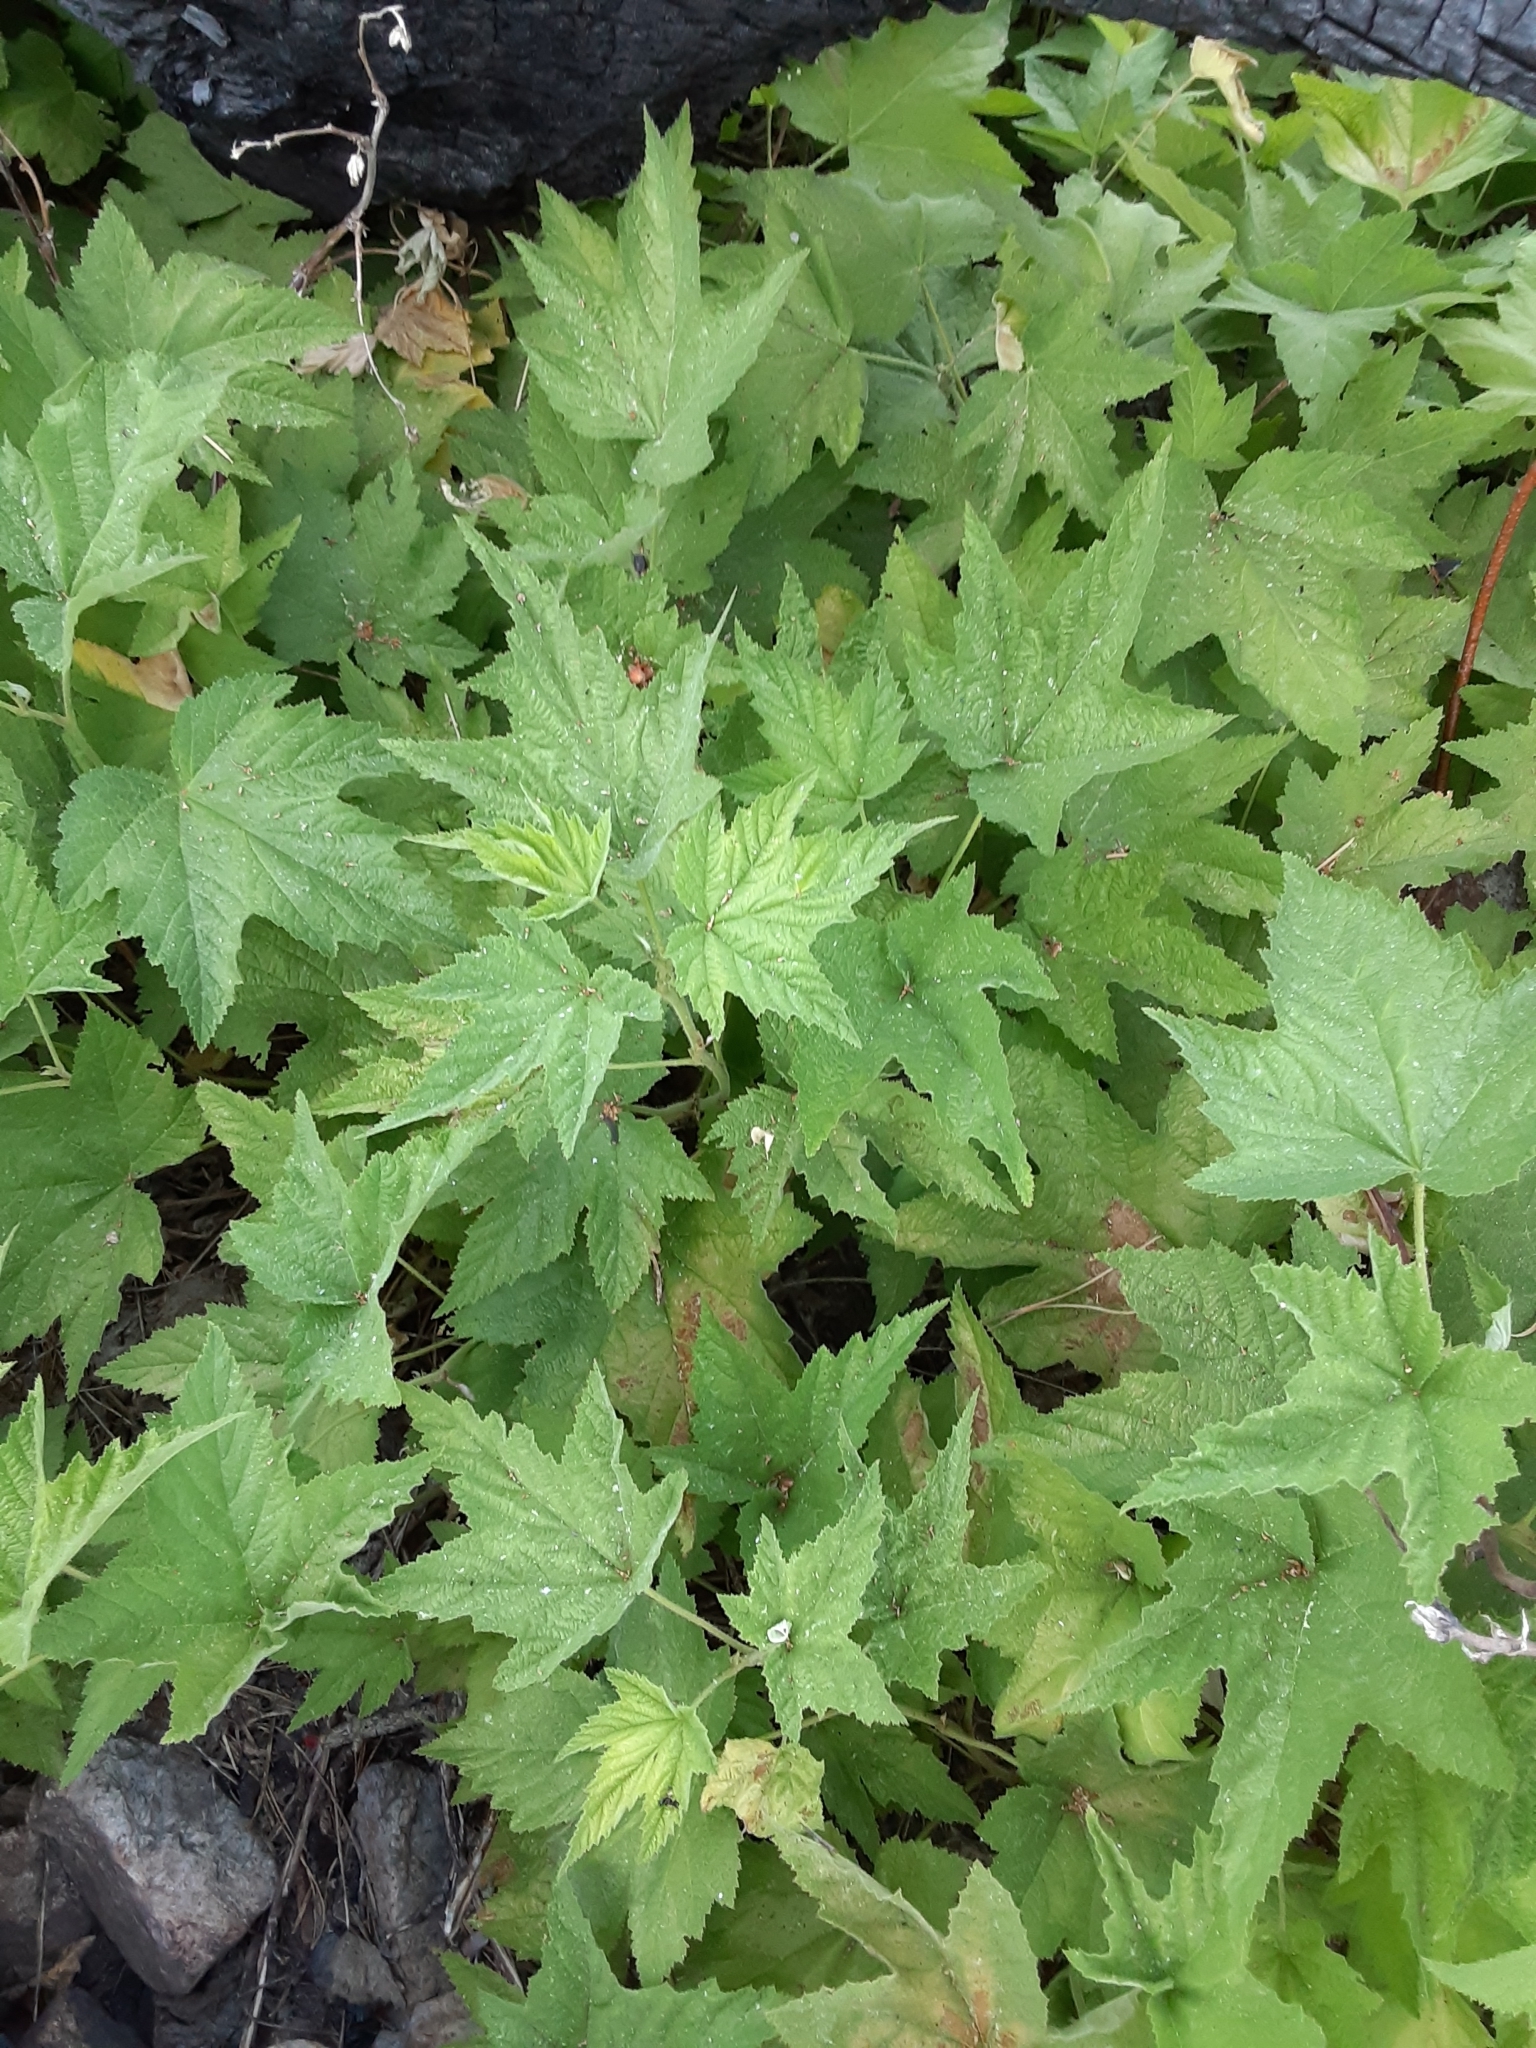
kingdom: Plantae
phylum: Tracheophyta
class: Magnoliopsida
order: Rosales
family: Rosaceae
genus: Rubus
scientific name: Rubus parviflorus
